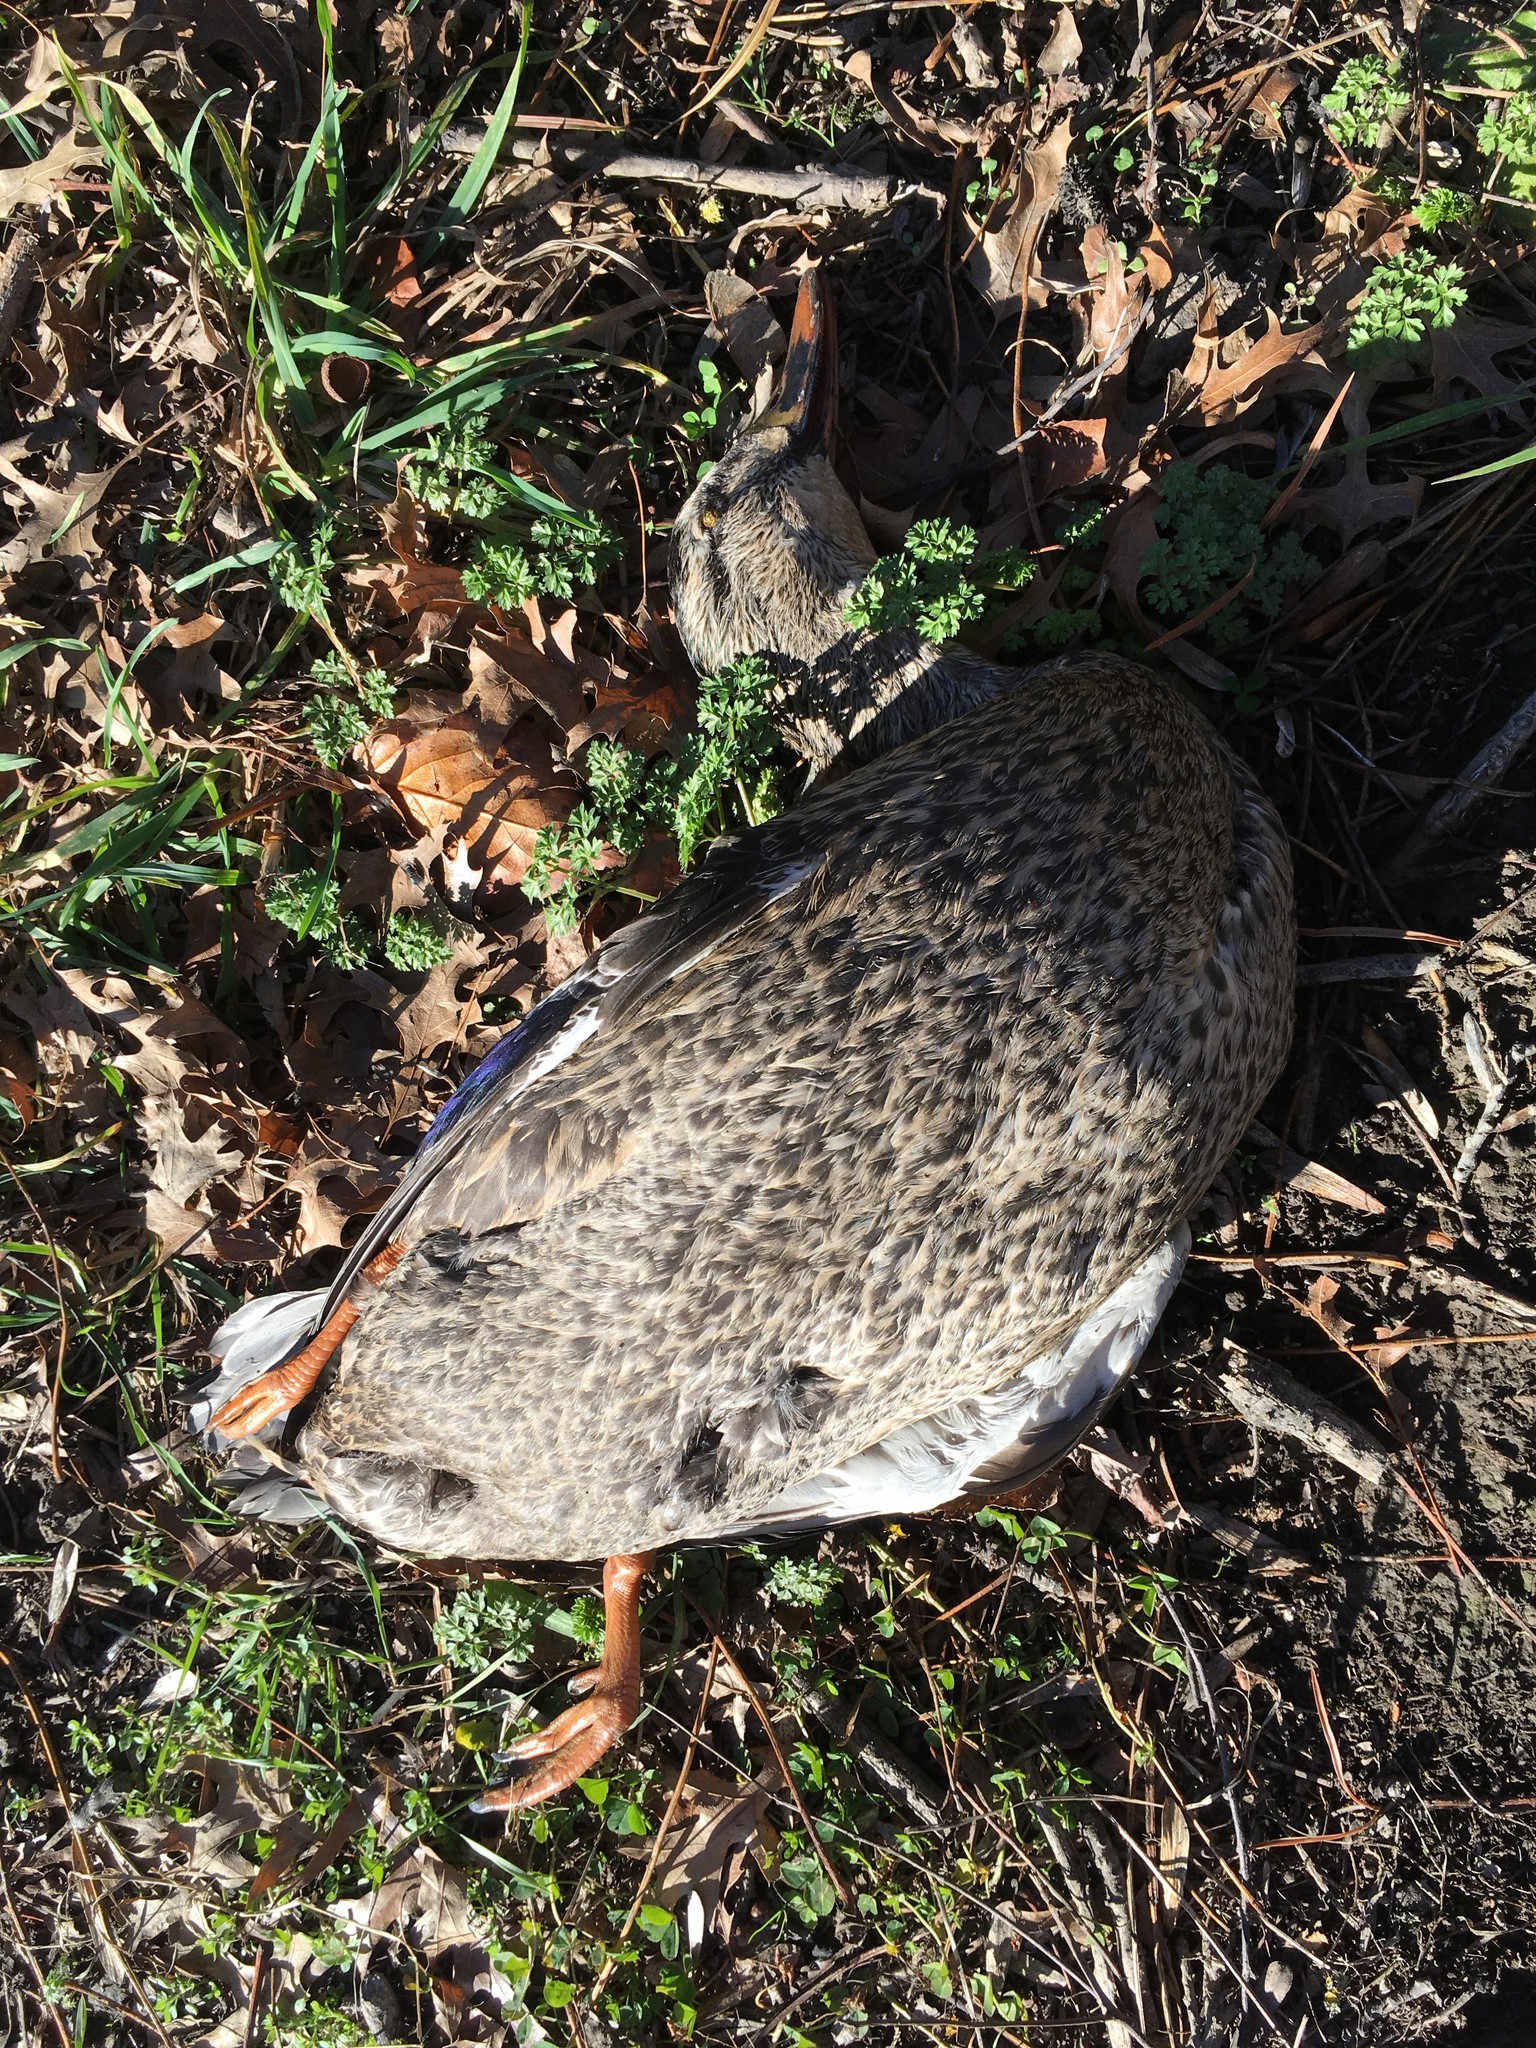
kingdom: Animalia
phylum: Chordata
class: Aves
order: Anseriformes
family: Anatidae
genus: Anas
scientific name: Anas
